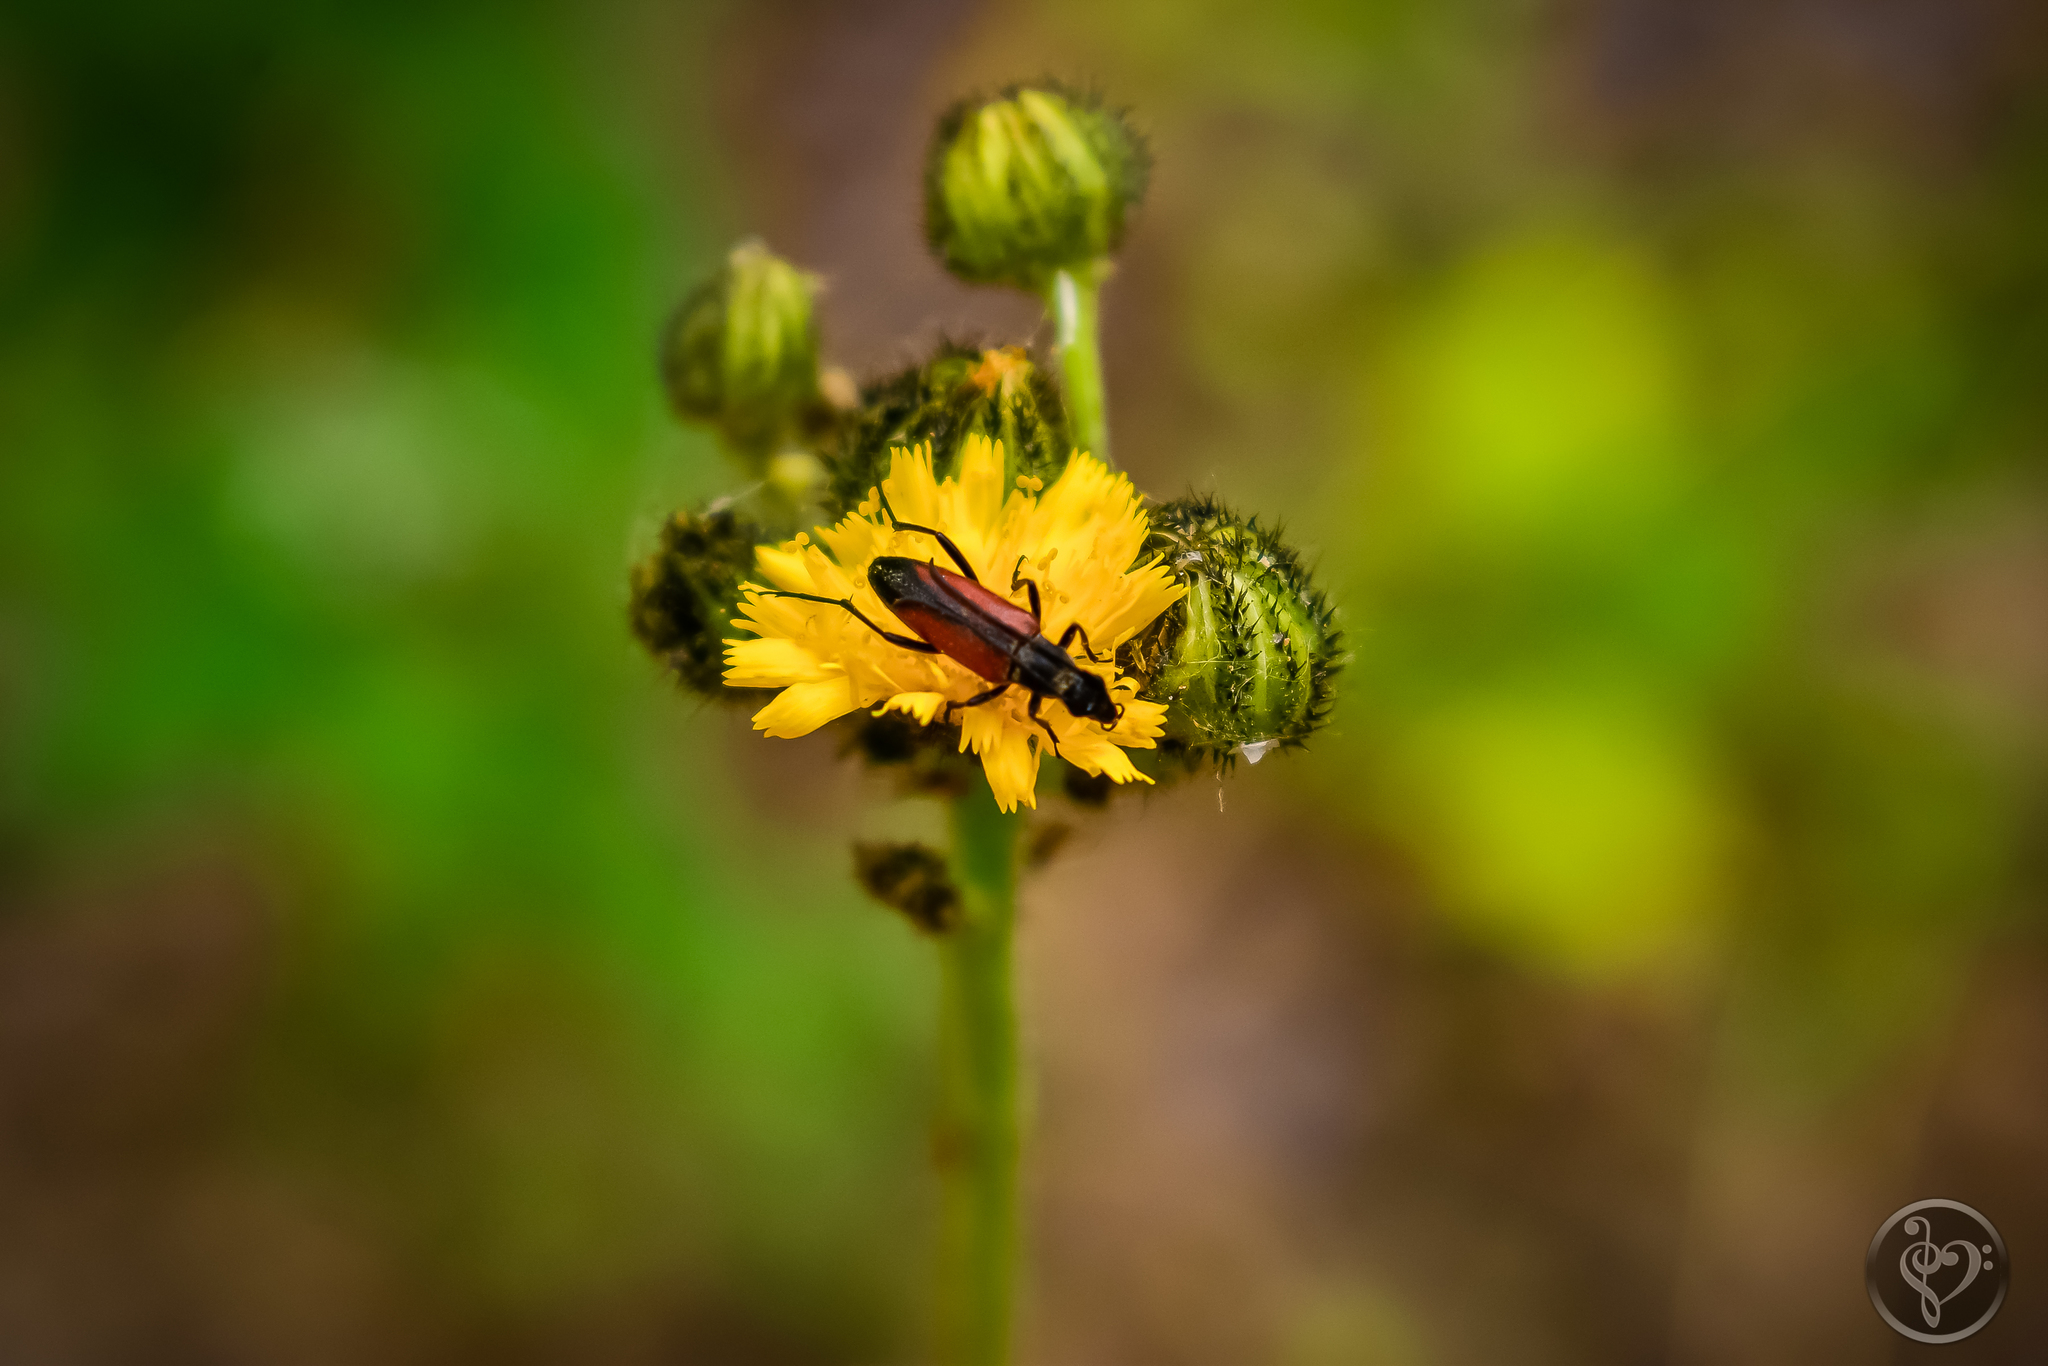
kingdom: Animalia
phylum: Arthropoda
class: Insecta
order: Coleoptera
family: Cerambycidae
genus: Stenurella
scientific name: Stenurella melanura
